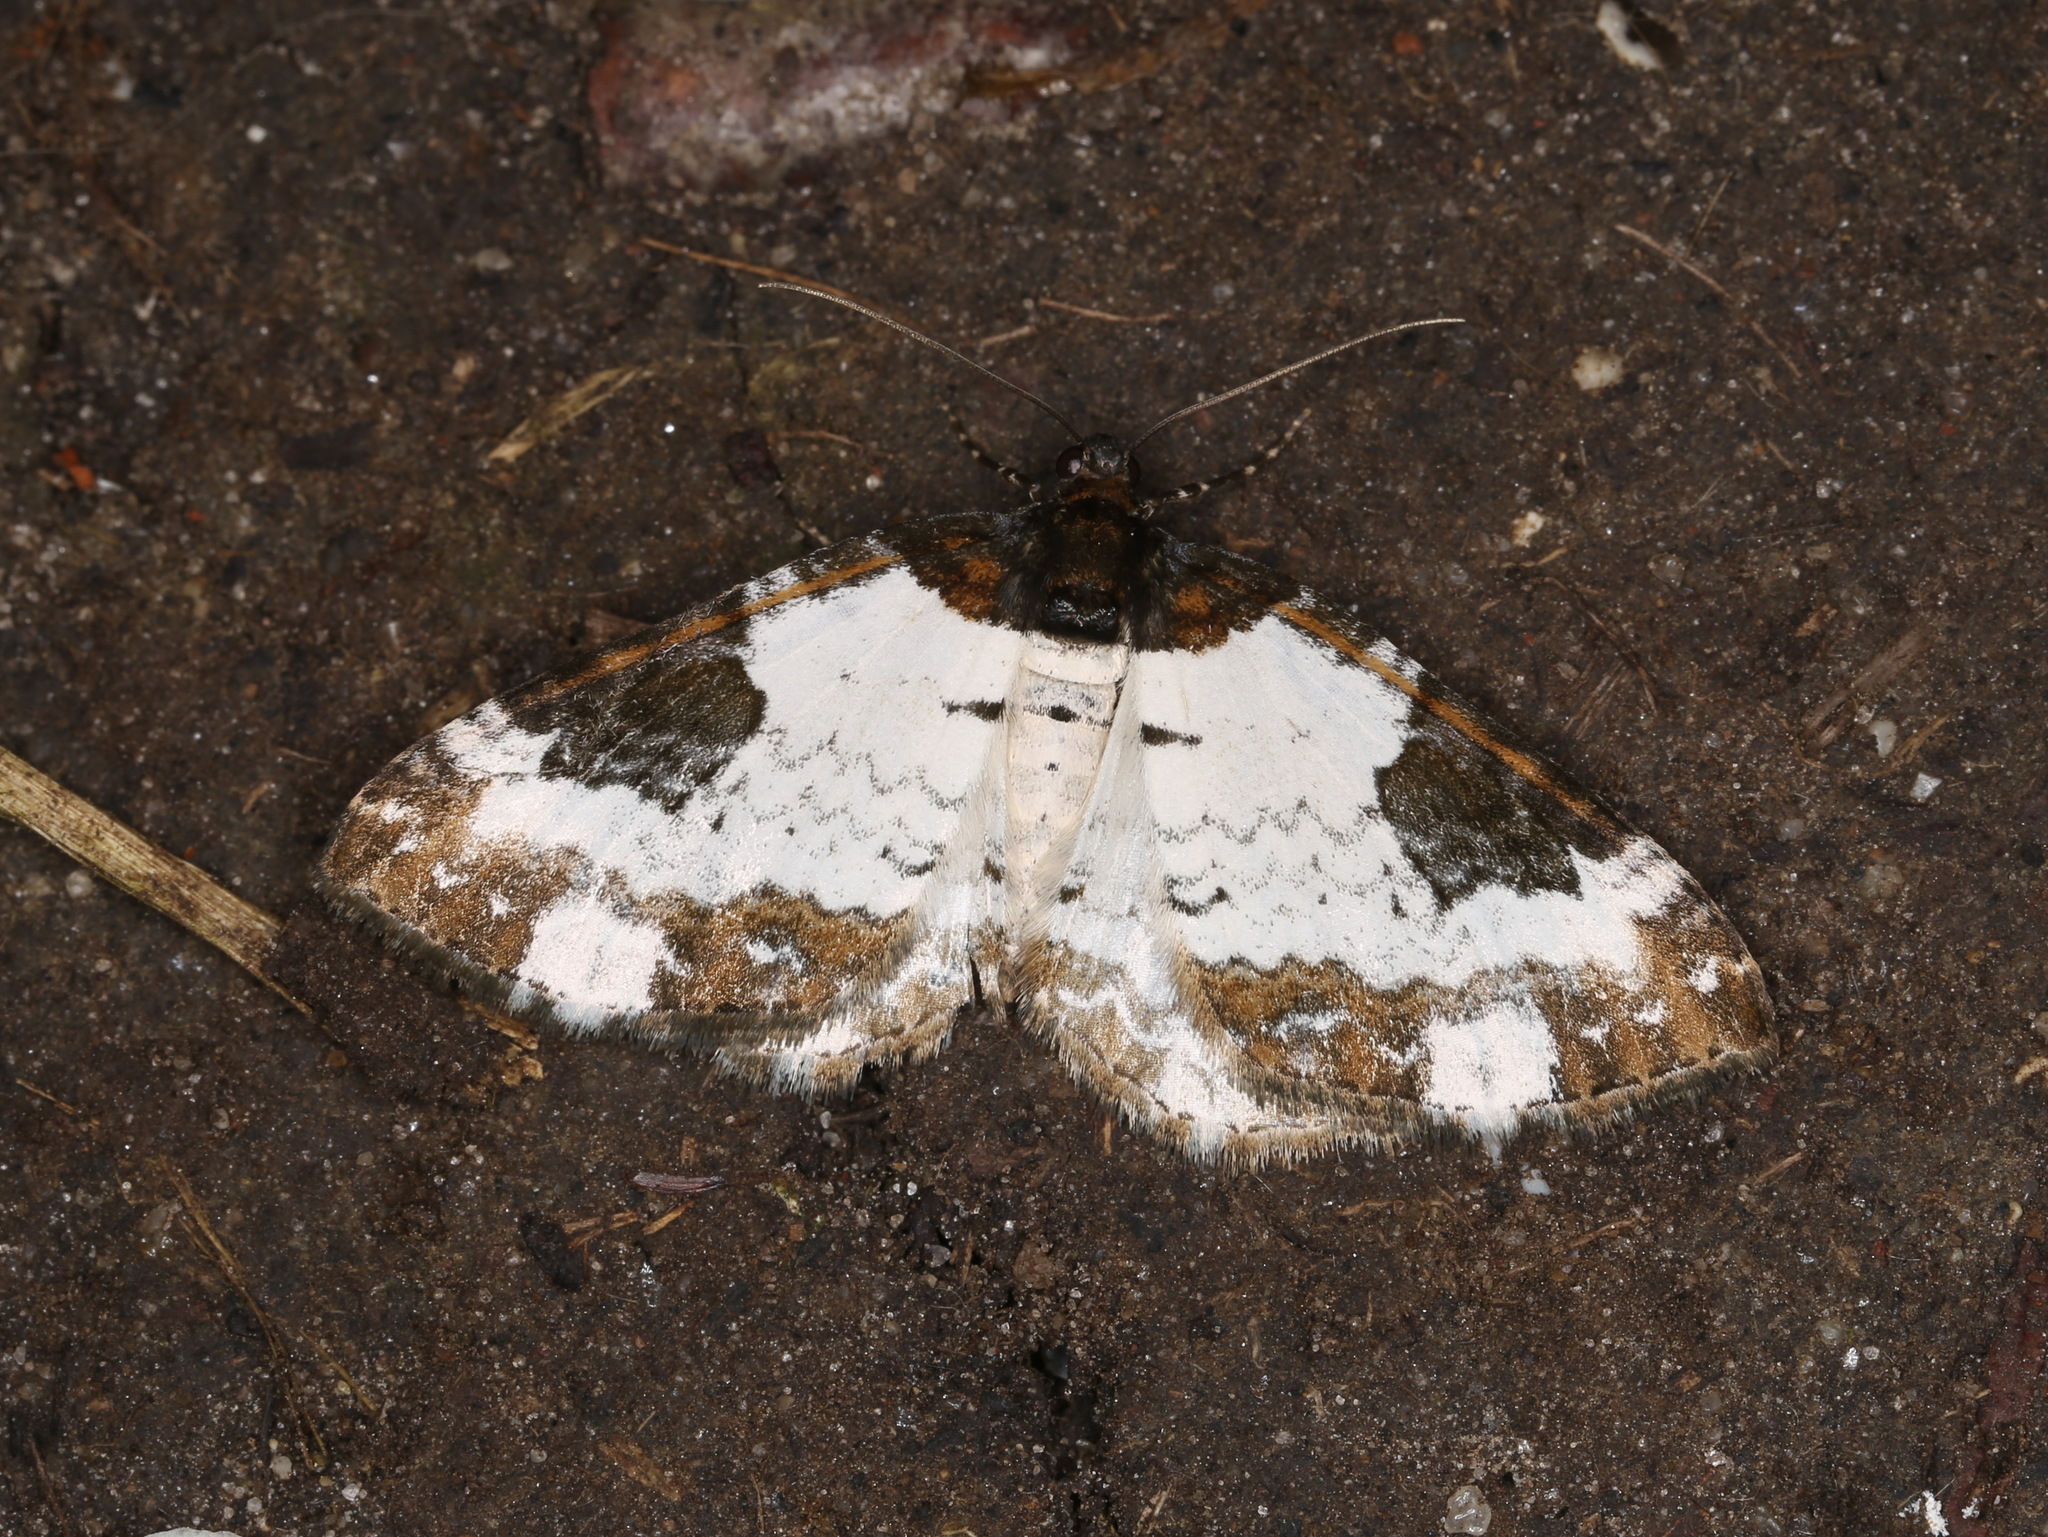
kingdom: Animalia
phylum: Arthropoda
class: Insecta
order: Lepidoptera
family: Geometridae
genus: Melanthia
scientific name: Melanthia procellata
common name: Pretty chalk carpet
